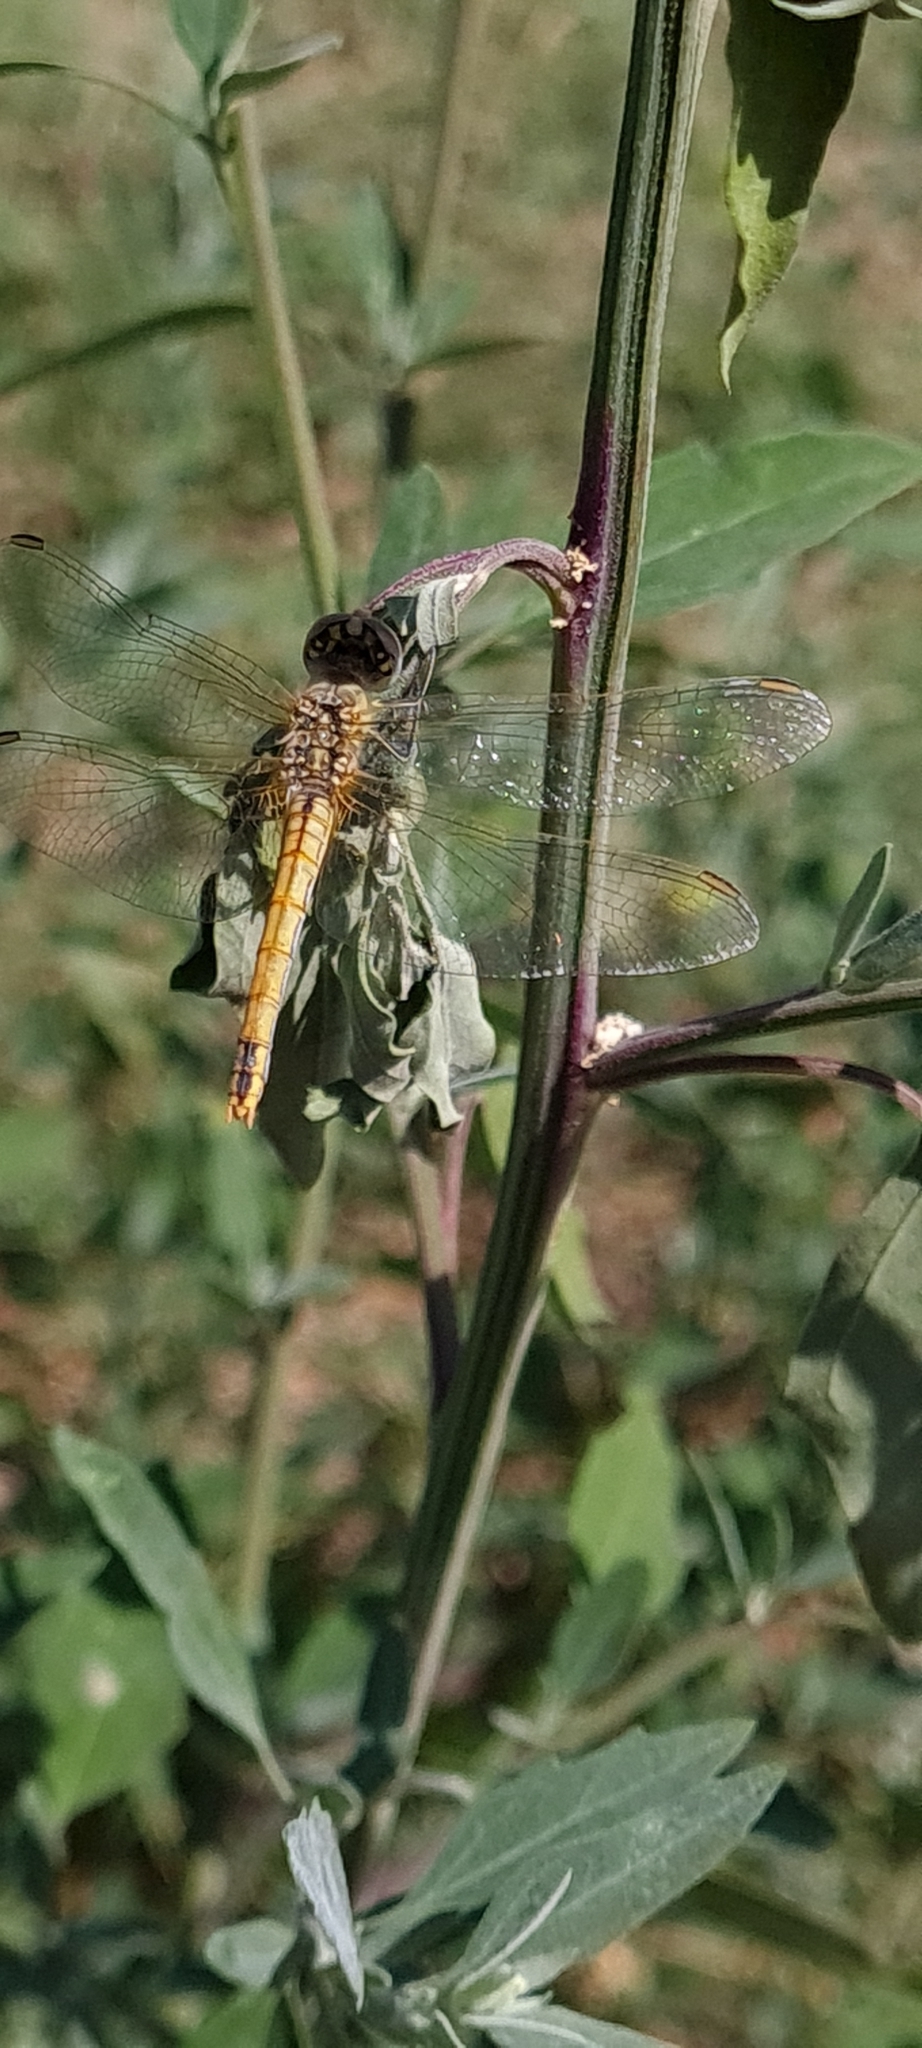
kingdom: Animalia
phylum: Arthropoda
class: Insecta
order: Odonata
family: Libellulidae
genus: Sympetrum
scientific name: Sympetrum fonscolombii
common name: Red-veined darter
